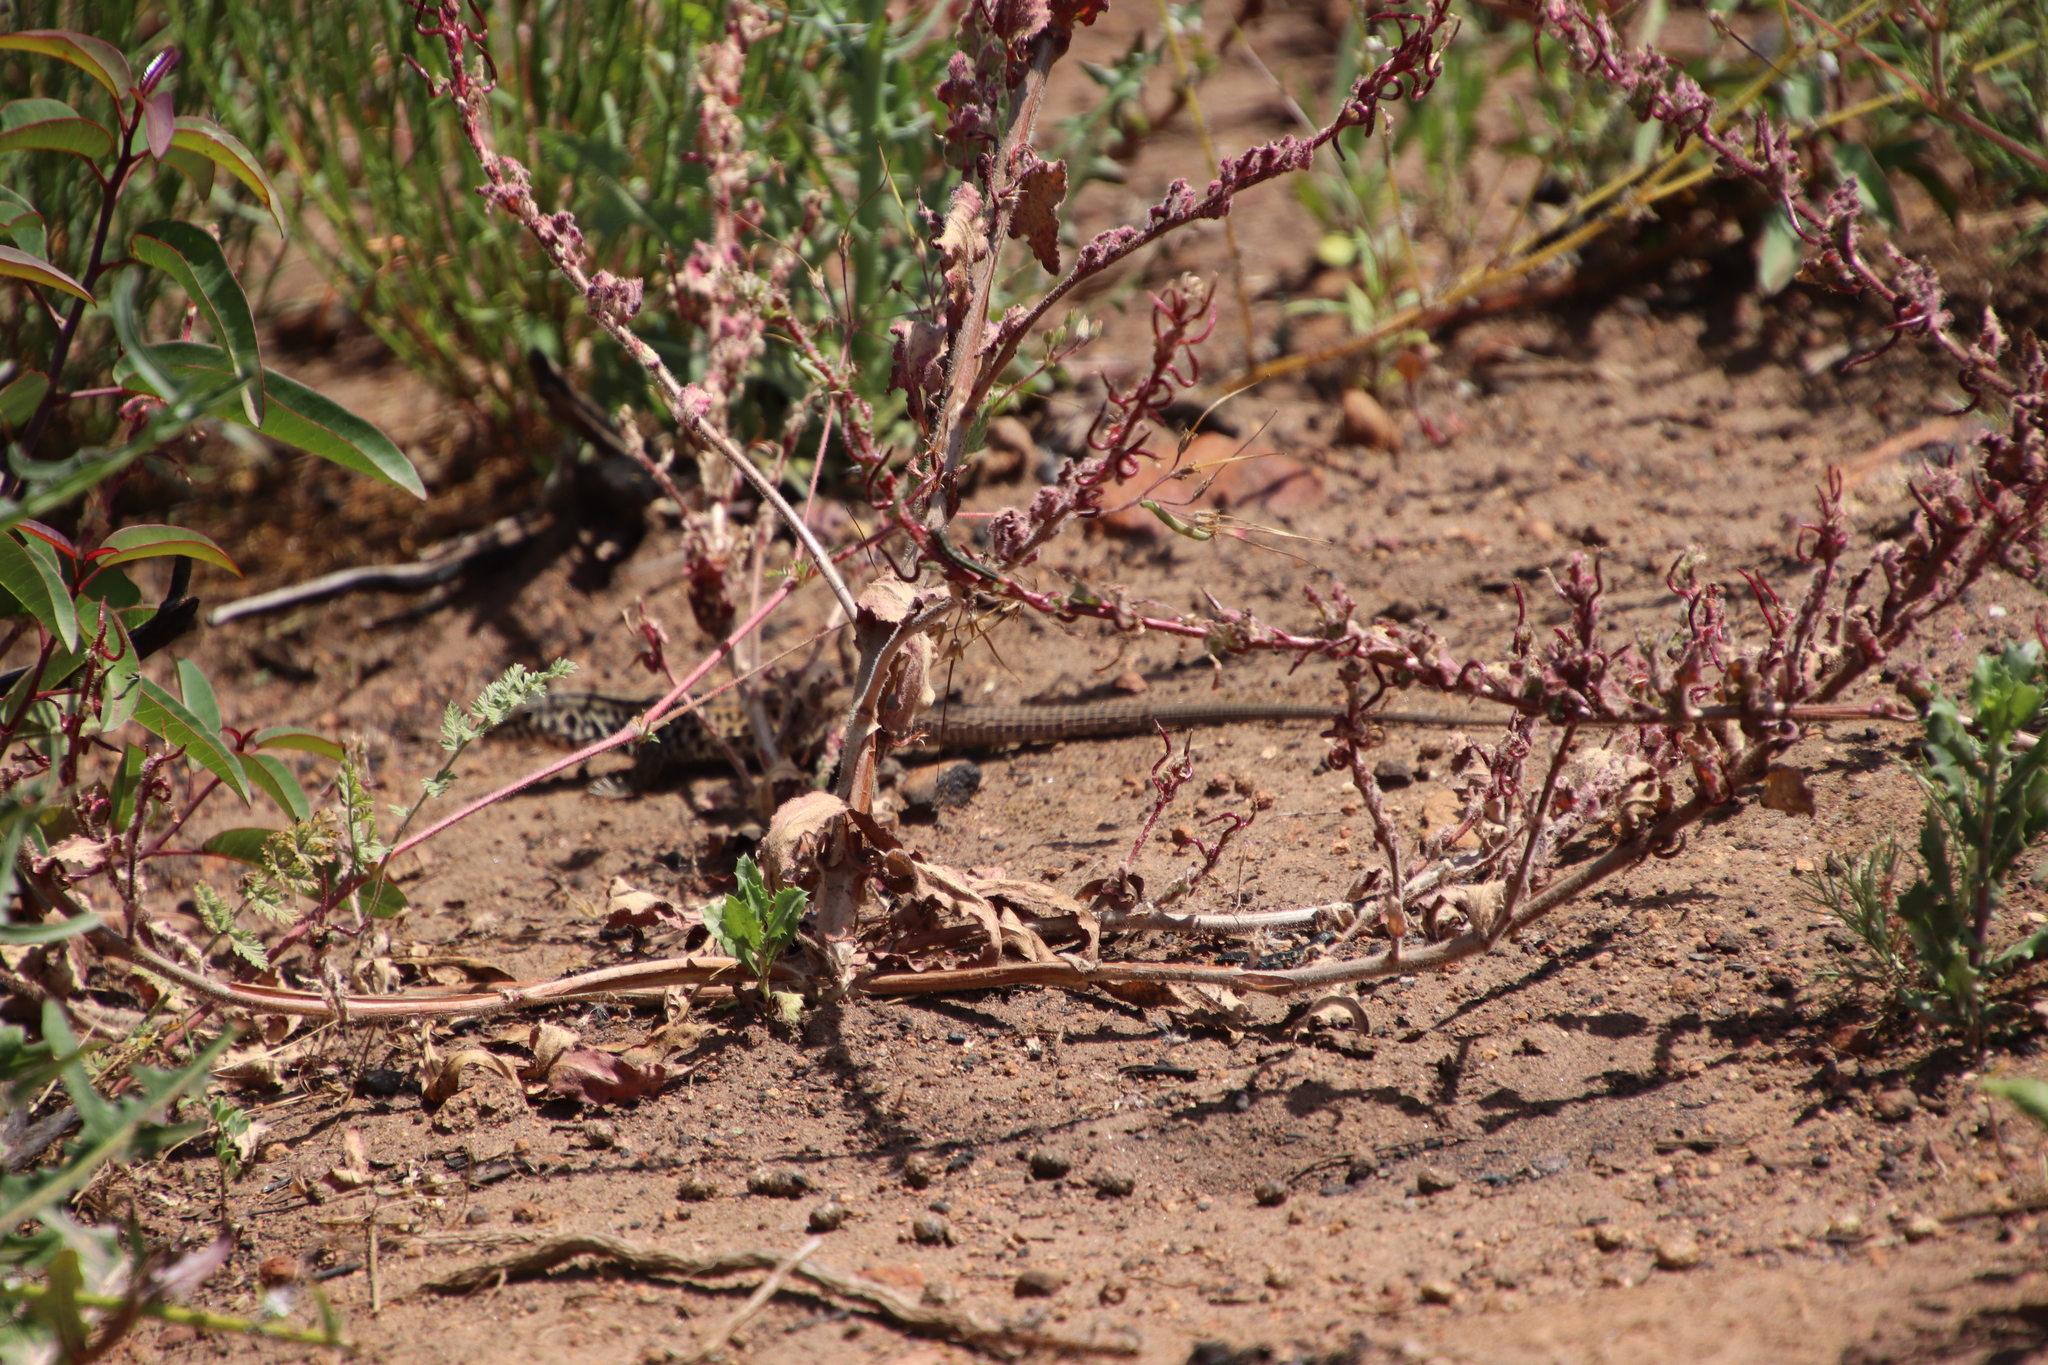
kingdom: Animalia
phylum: Chordata
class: Squamata
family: Teiidae
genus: Aspidoscelis
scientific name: Aspidoscelis tigris
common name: Tiger whiptail
